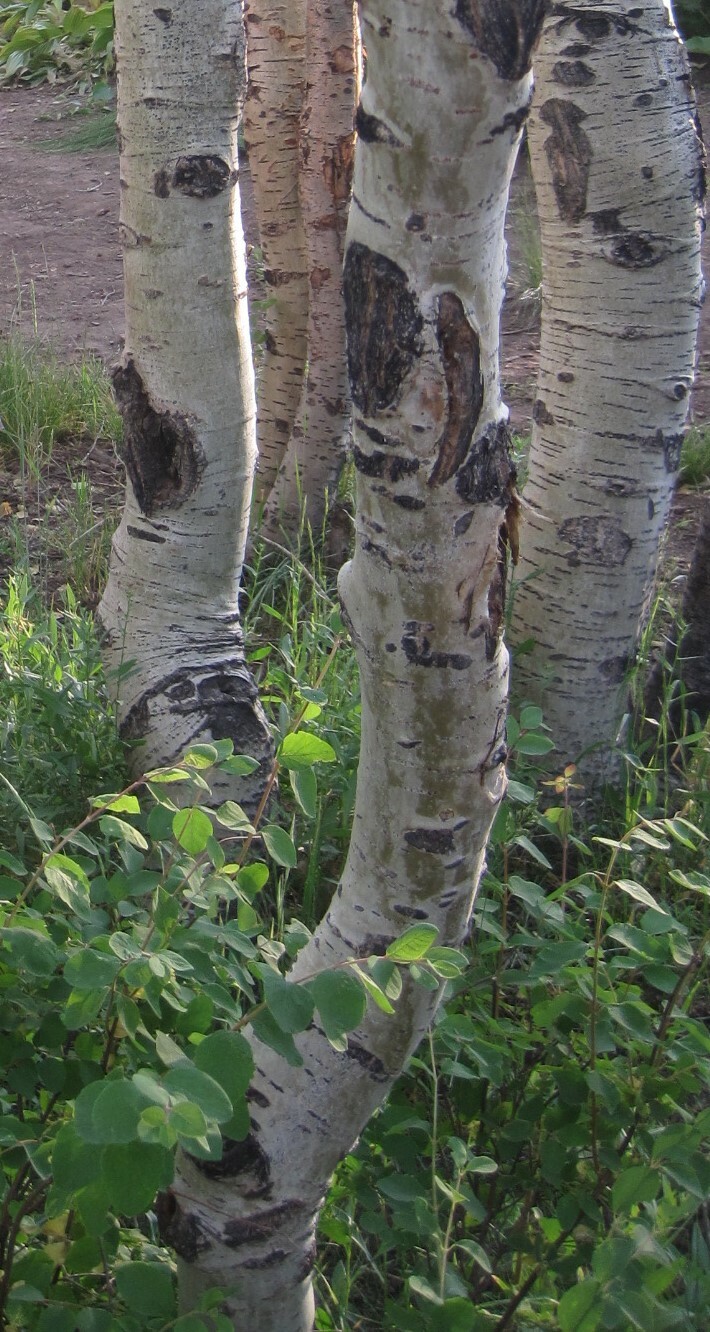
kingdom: Plantae
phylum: Tracheophyta
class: Magnoliopsida
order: Malpighiales
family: Salicaceae
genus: Populus
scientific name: Populus tremuloides
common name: Quaking aspen
